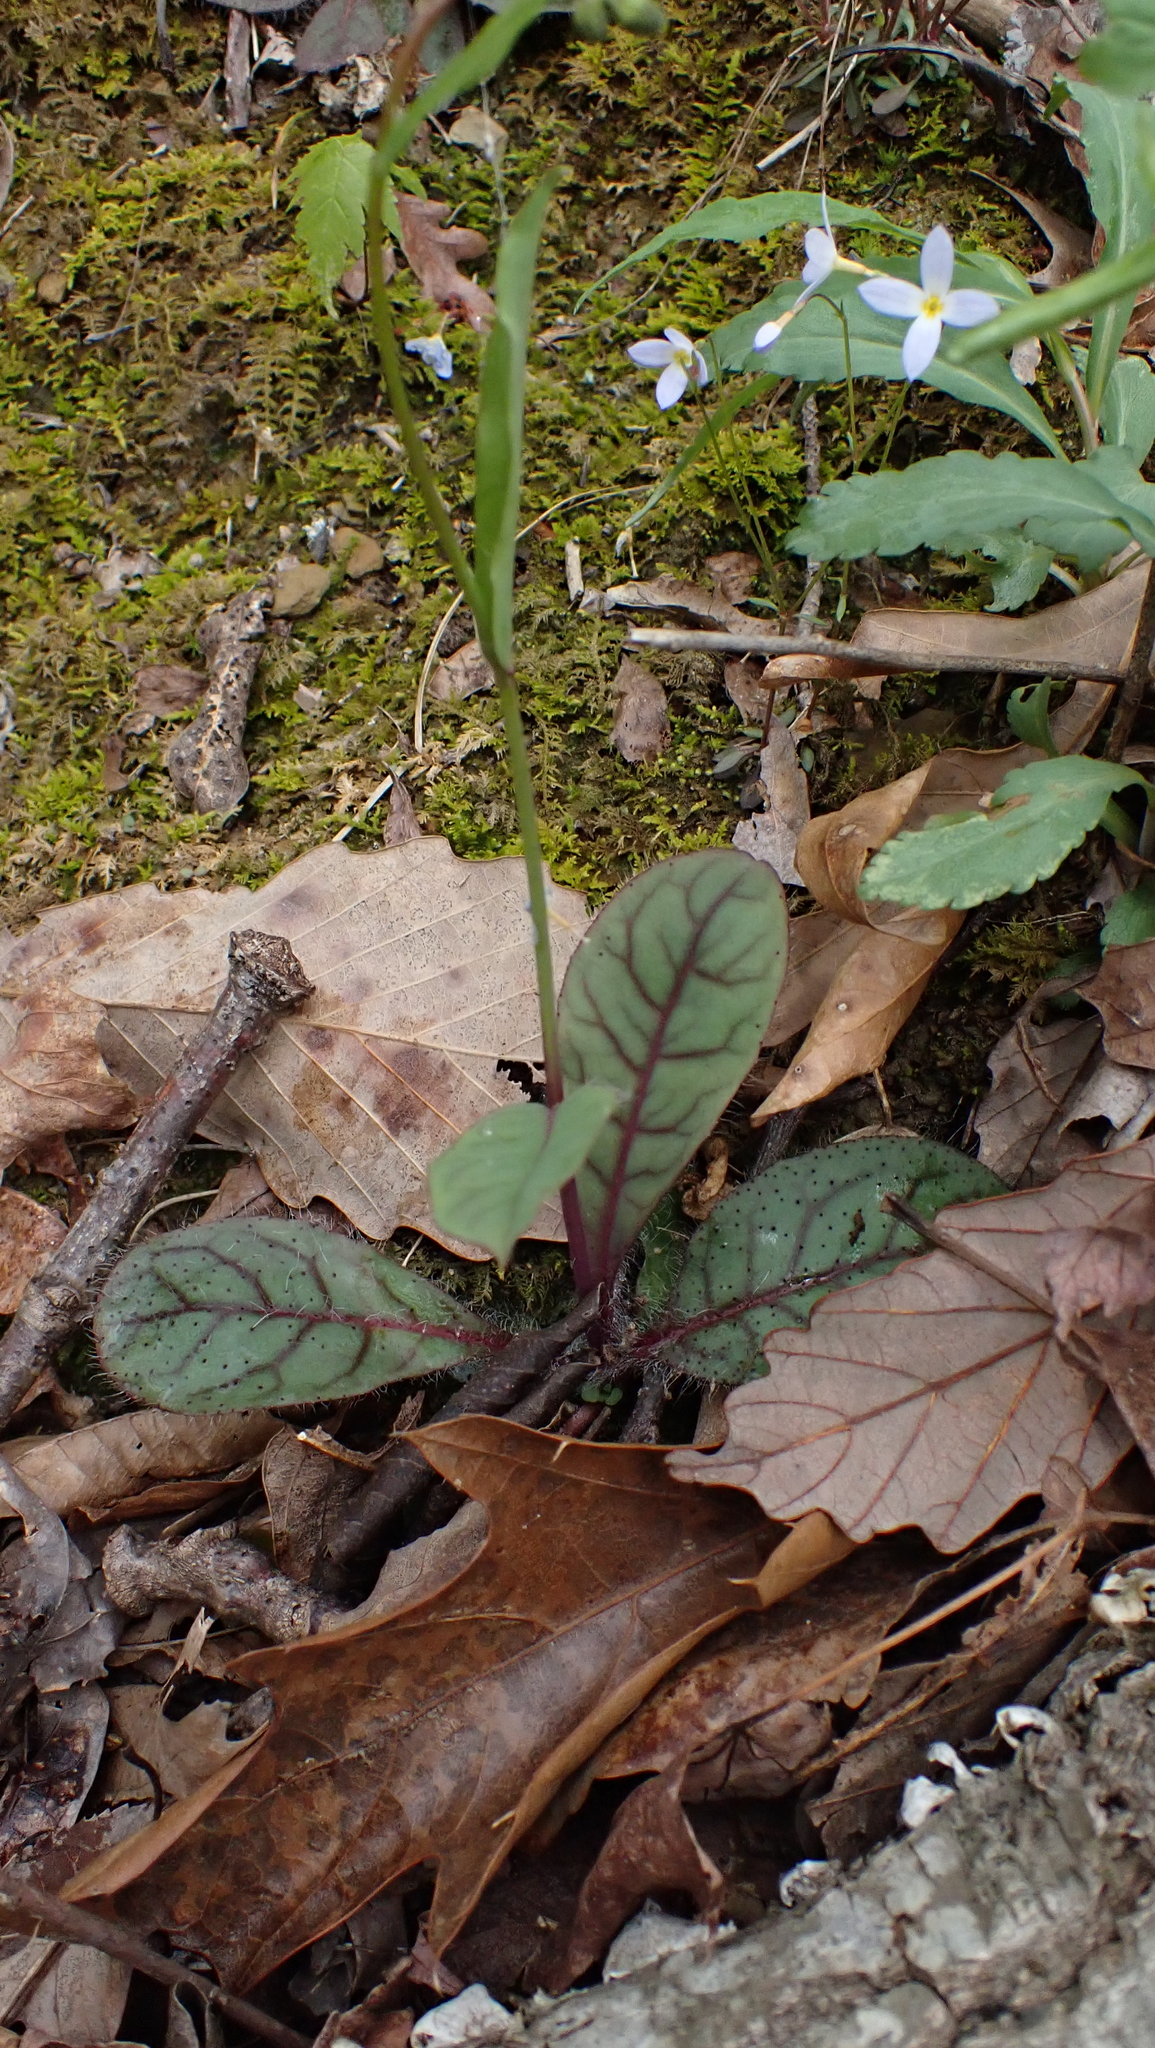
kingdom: Plantae
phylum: Tracheophyta
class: Magnoliopsida
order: Asterales
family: Asteraceae
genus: Hieracium
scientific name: Hieracium venosum
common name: Rattlesnake hawkweed
